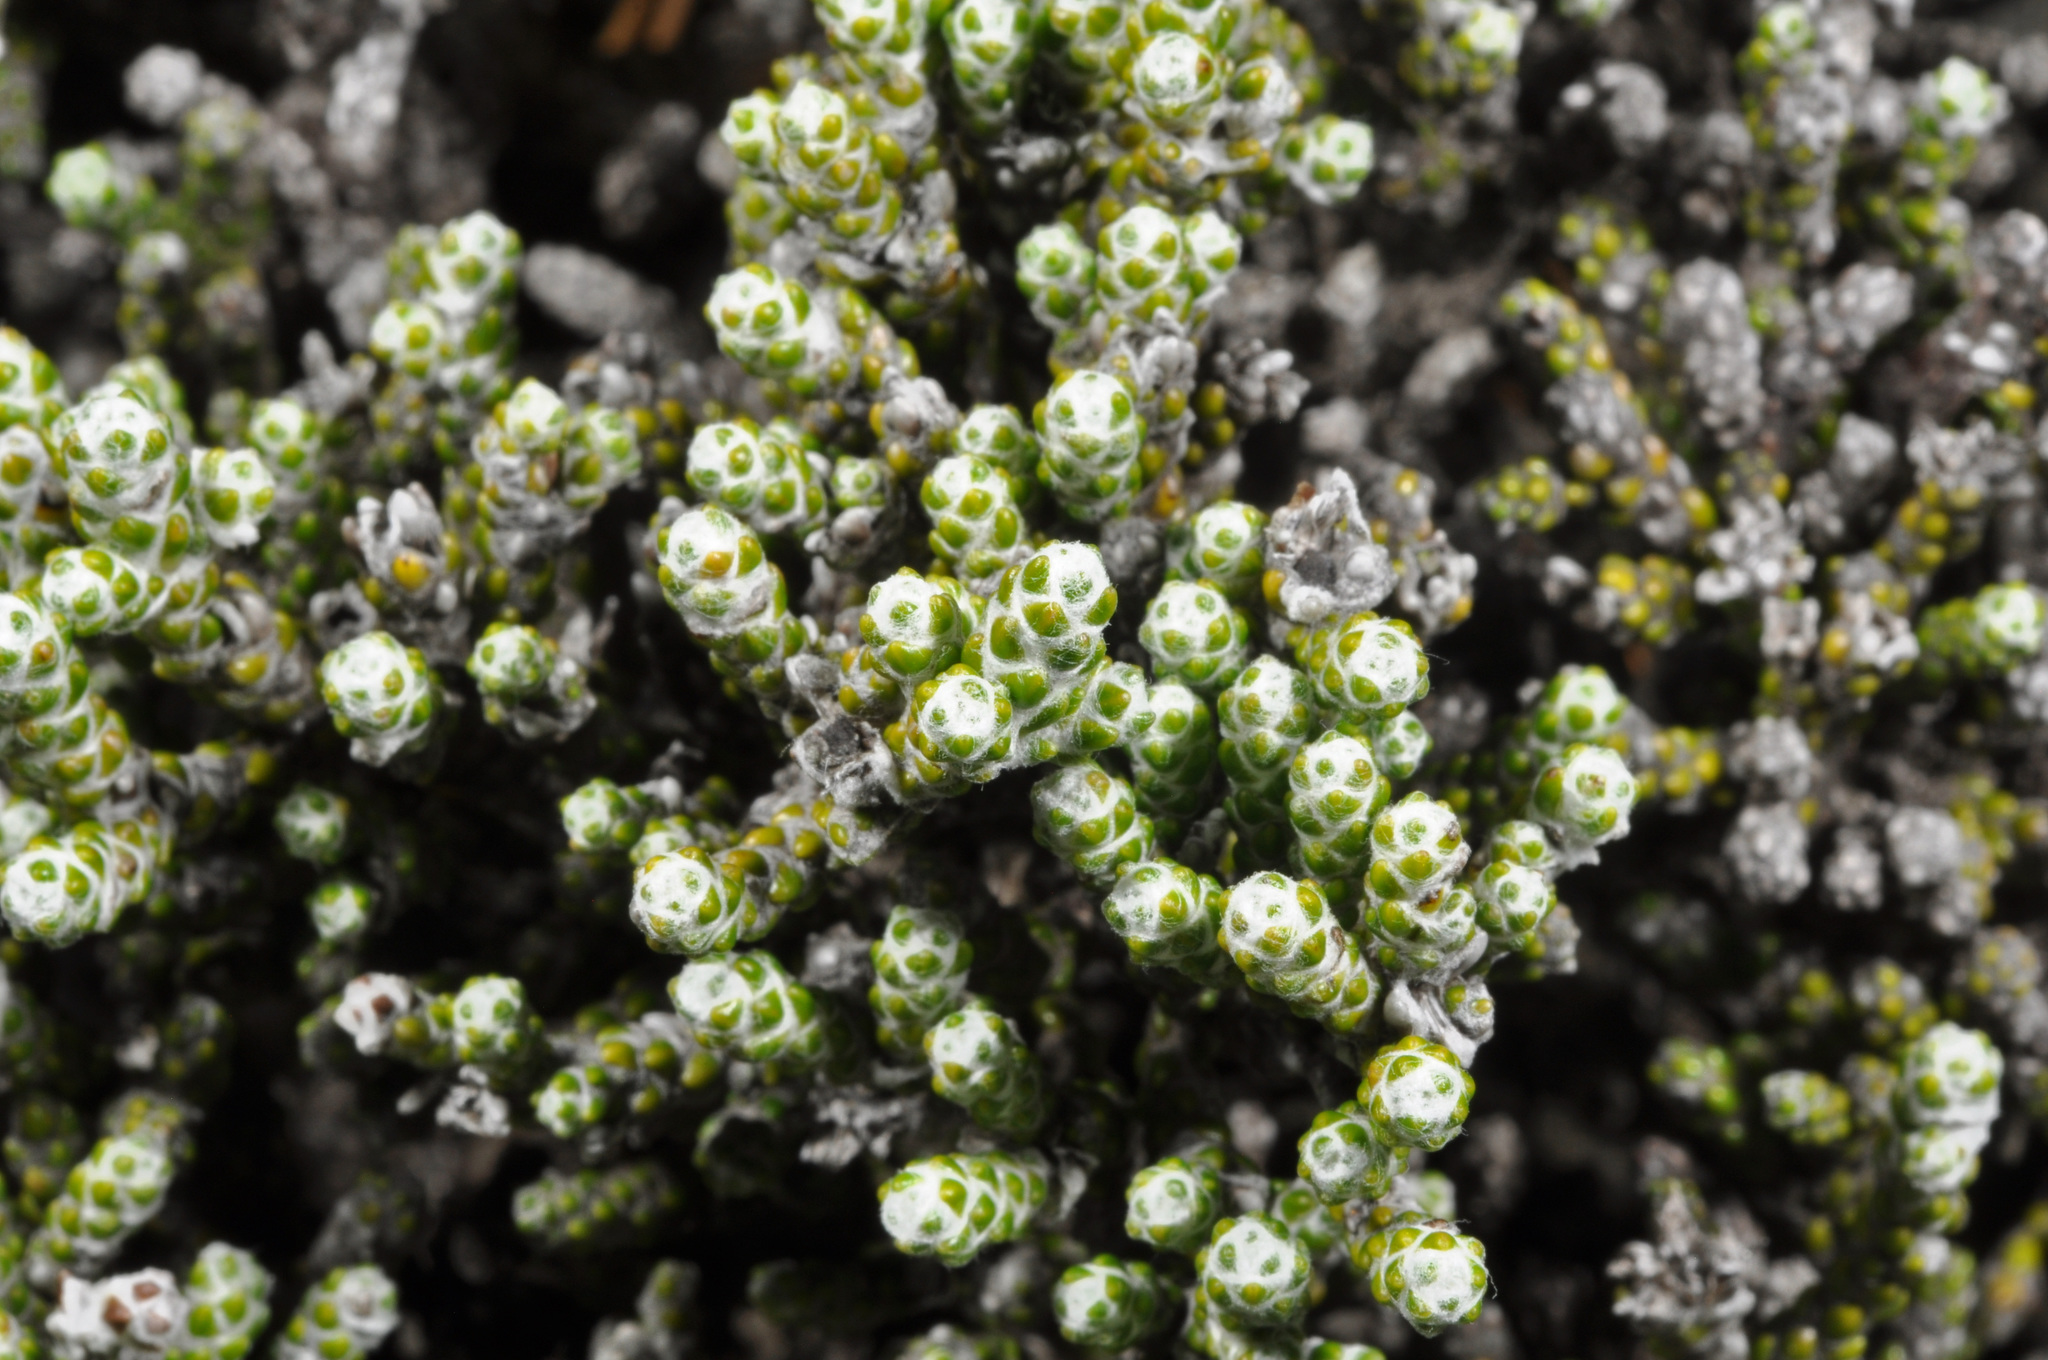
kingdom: Plantae
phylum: Tracheophyta
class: Magnoliopsida
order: Asterales
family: Asteraceae
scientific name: Asteraceae
